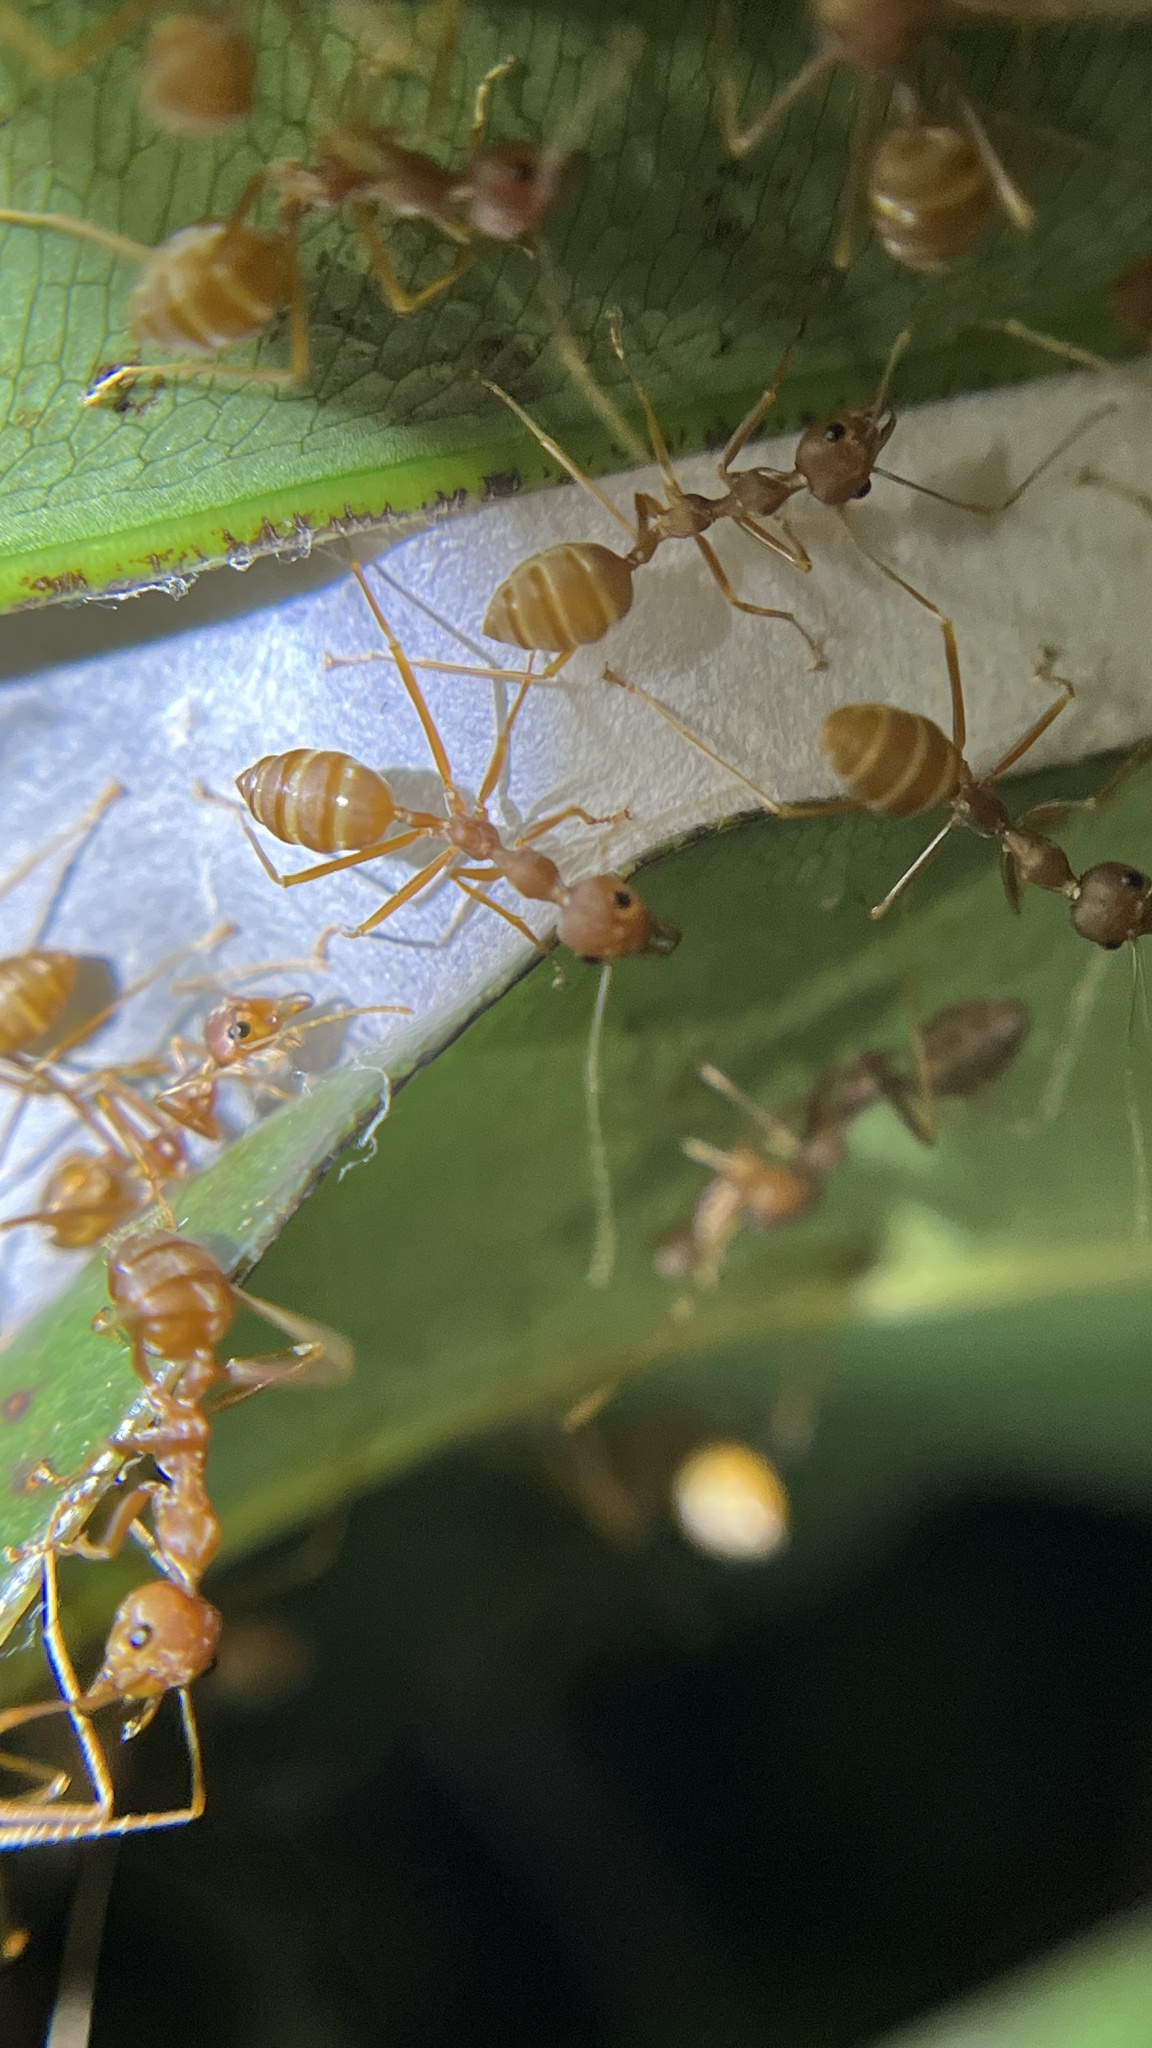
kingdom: Animalia
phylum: Arthropoda
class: Insecta
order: Hymenoptera
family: Formicidae
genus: Oecophylla
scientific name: Oecophylla smaragdina
